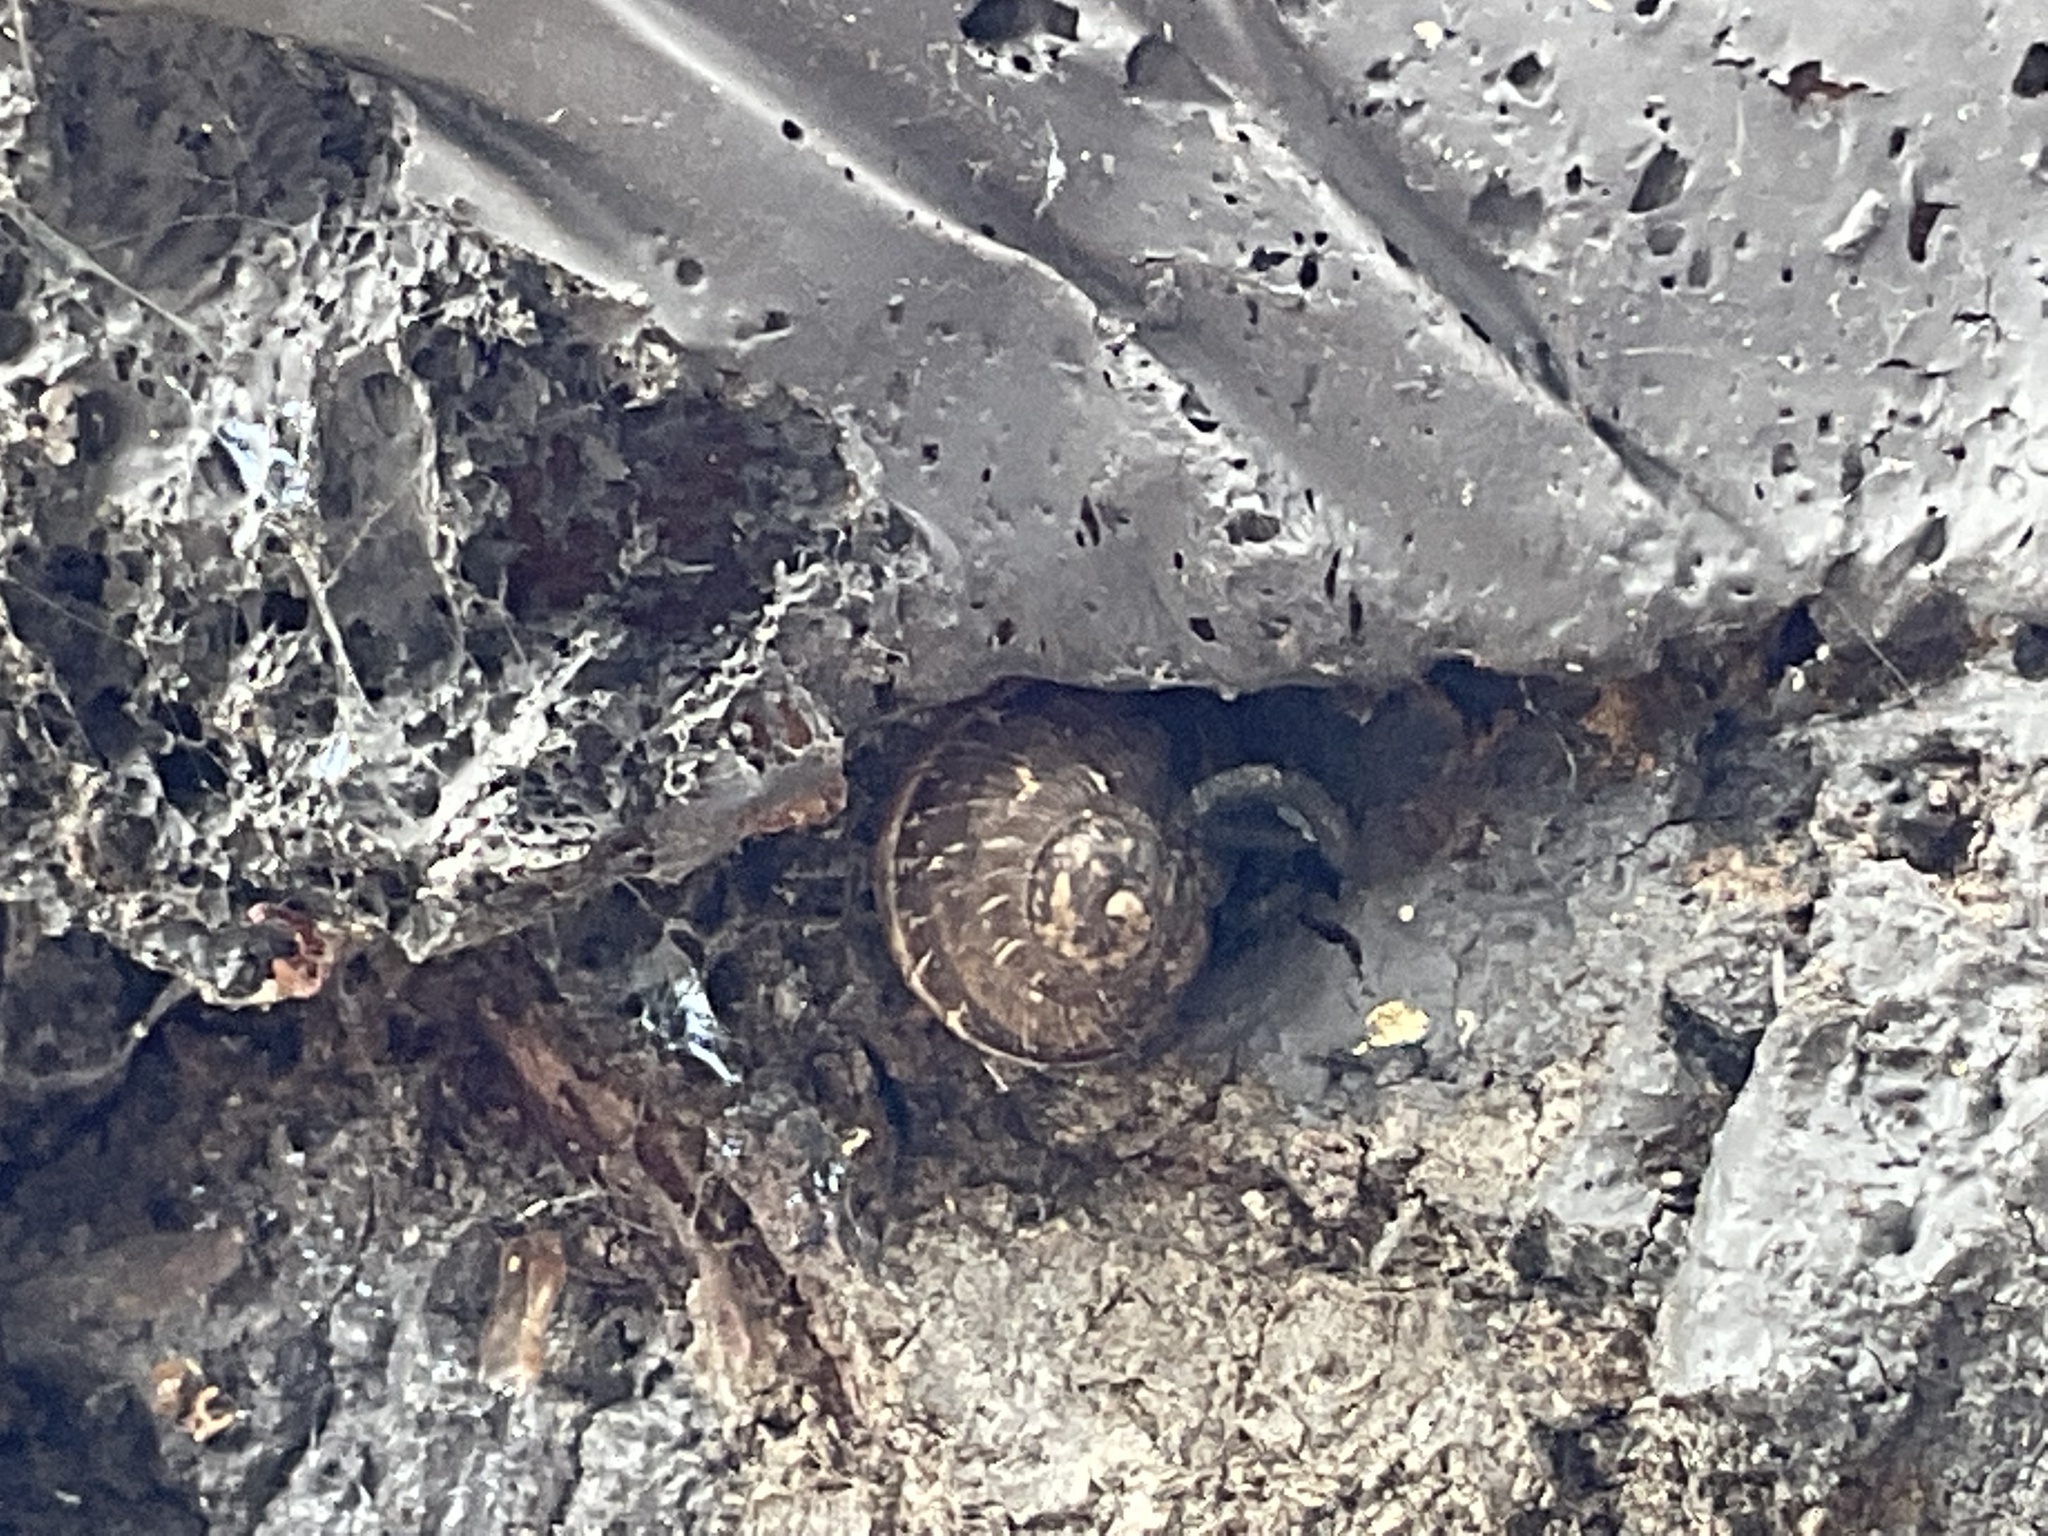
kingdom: Animalia
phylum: Mollusca
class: Gastropoda
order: Stylommatophora
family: Helicidae
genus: Cornu
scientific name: Cornu aspersum
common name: Brown garden snail
